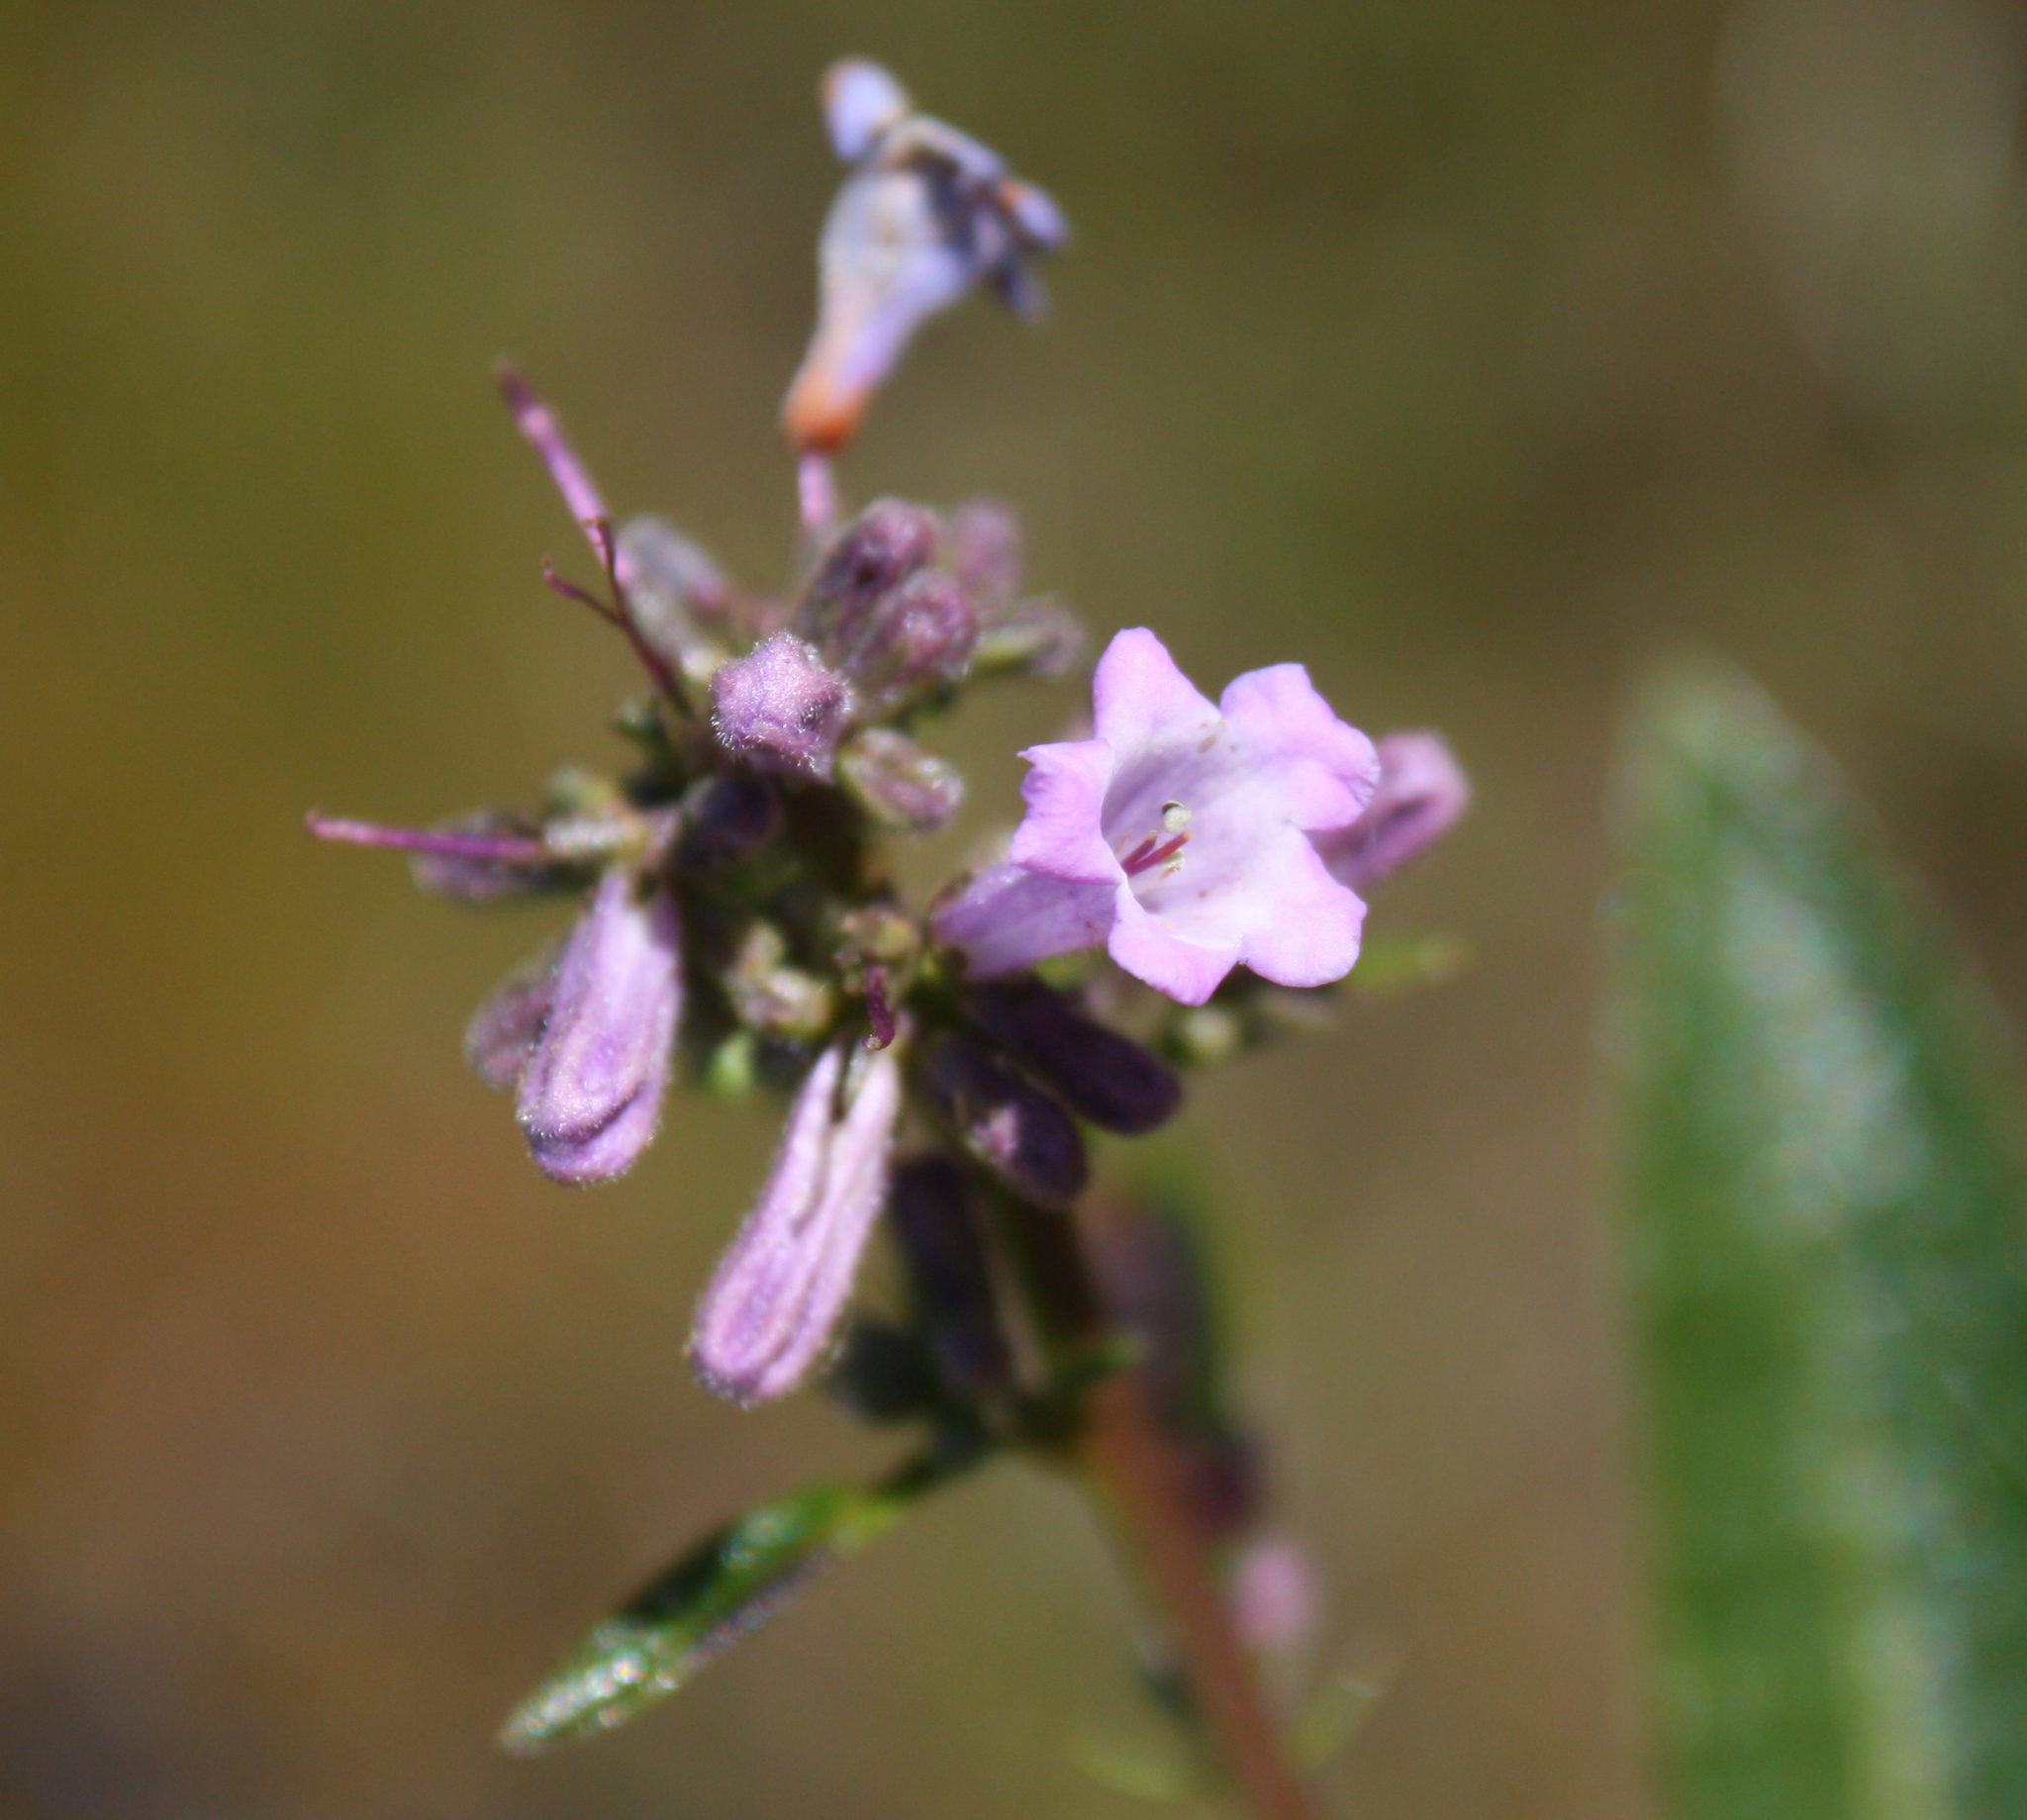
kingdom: Plantae
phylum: Tracheophyta
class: Magnoliopsida
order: Boraginales
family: Namaceae
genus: Eriodictyon
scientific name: Eriodictyon californicum
